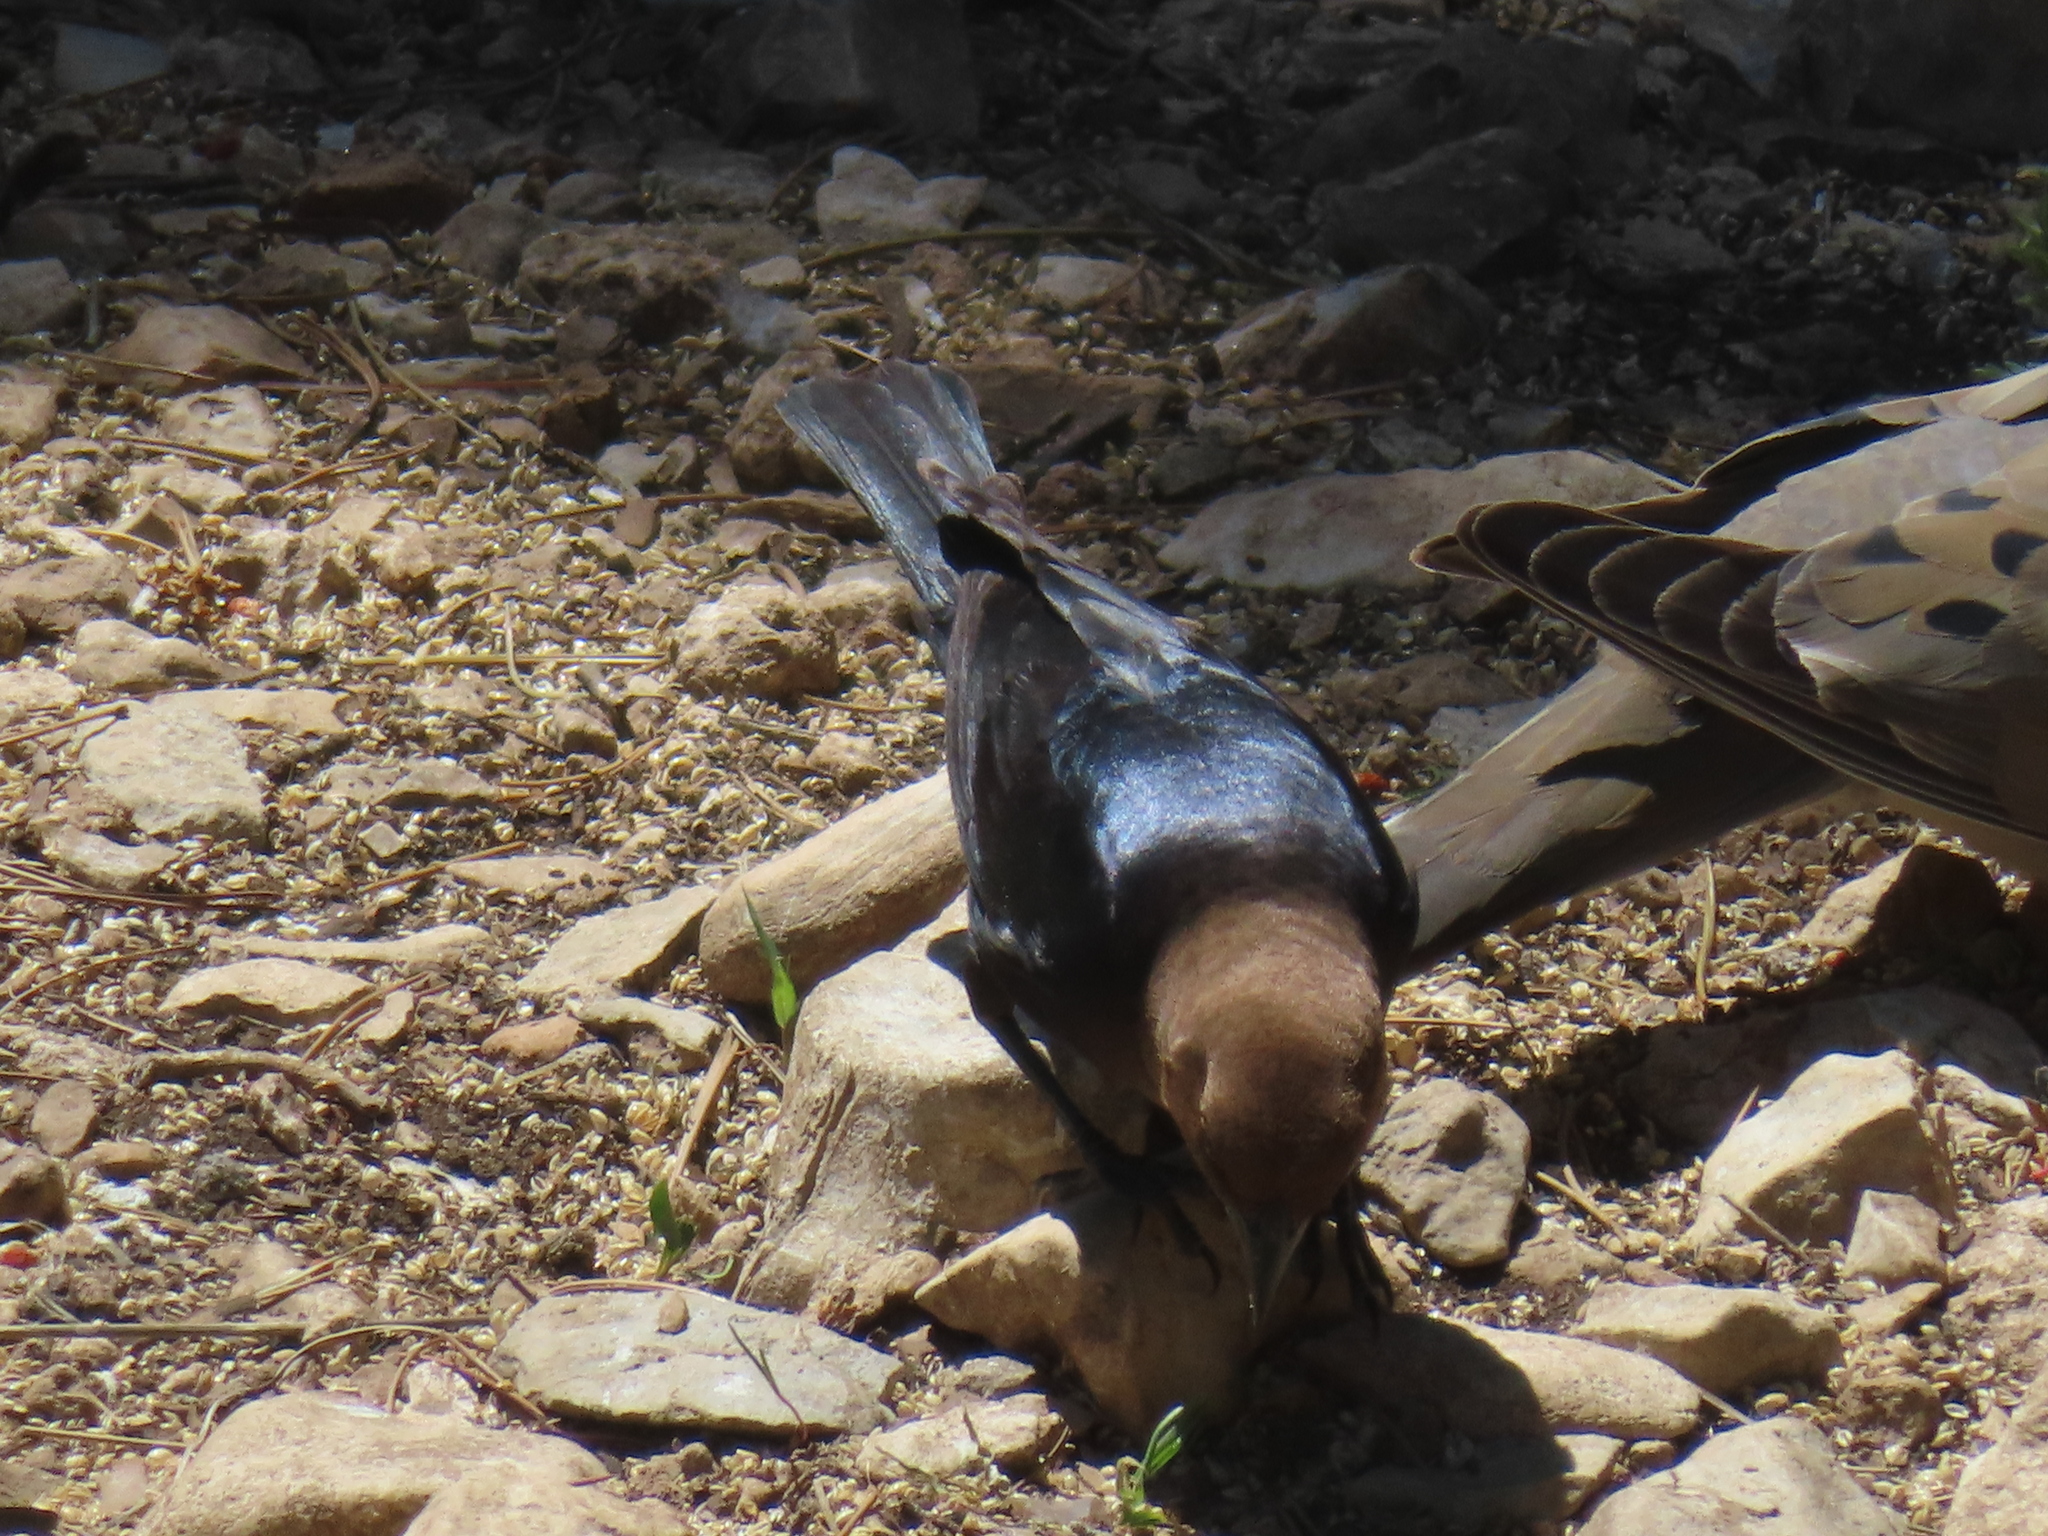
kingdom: Animalia
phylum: Chordata
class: Aves
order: Passeriformes
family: Icteridae
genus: Molothrus
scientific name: Molothrus ater
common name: Brown-headed cowbird
